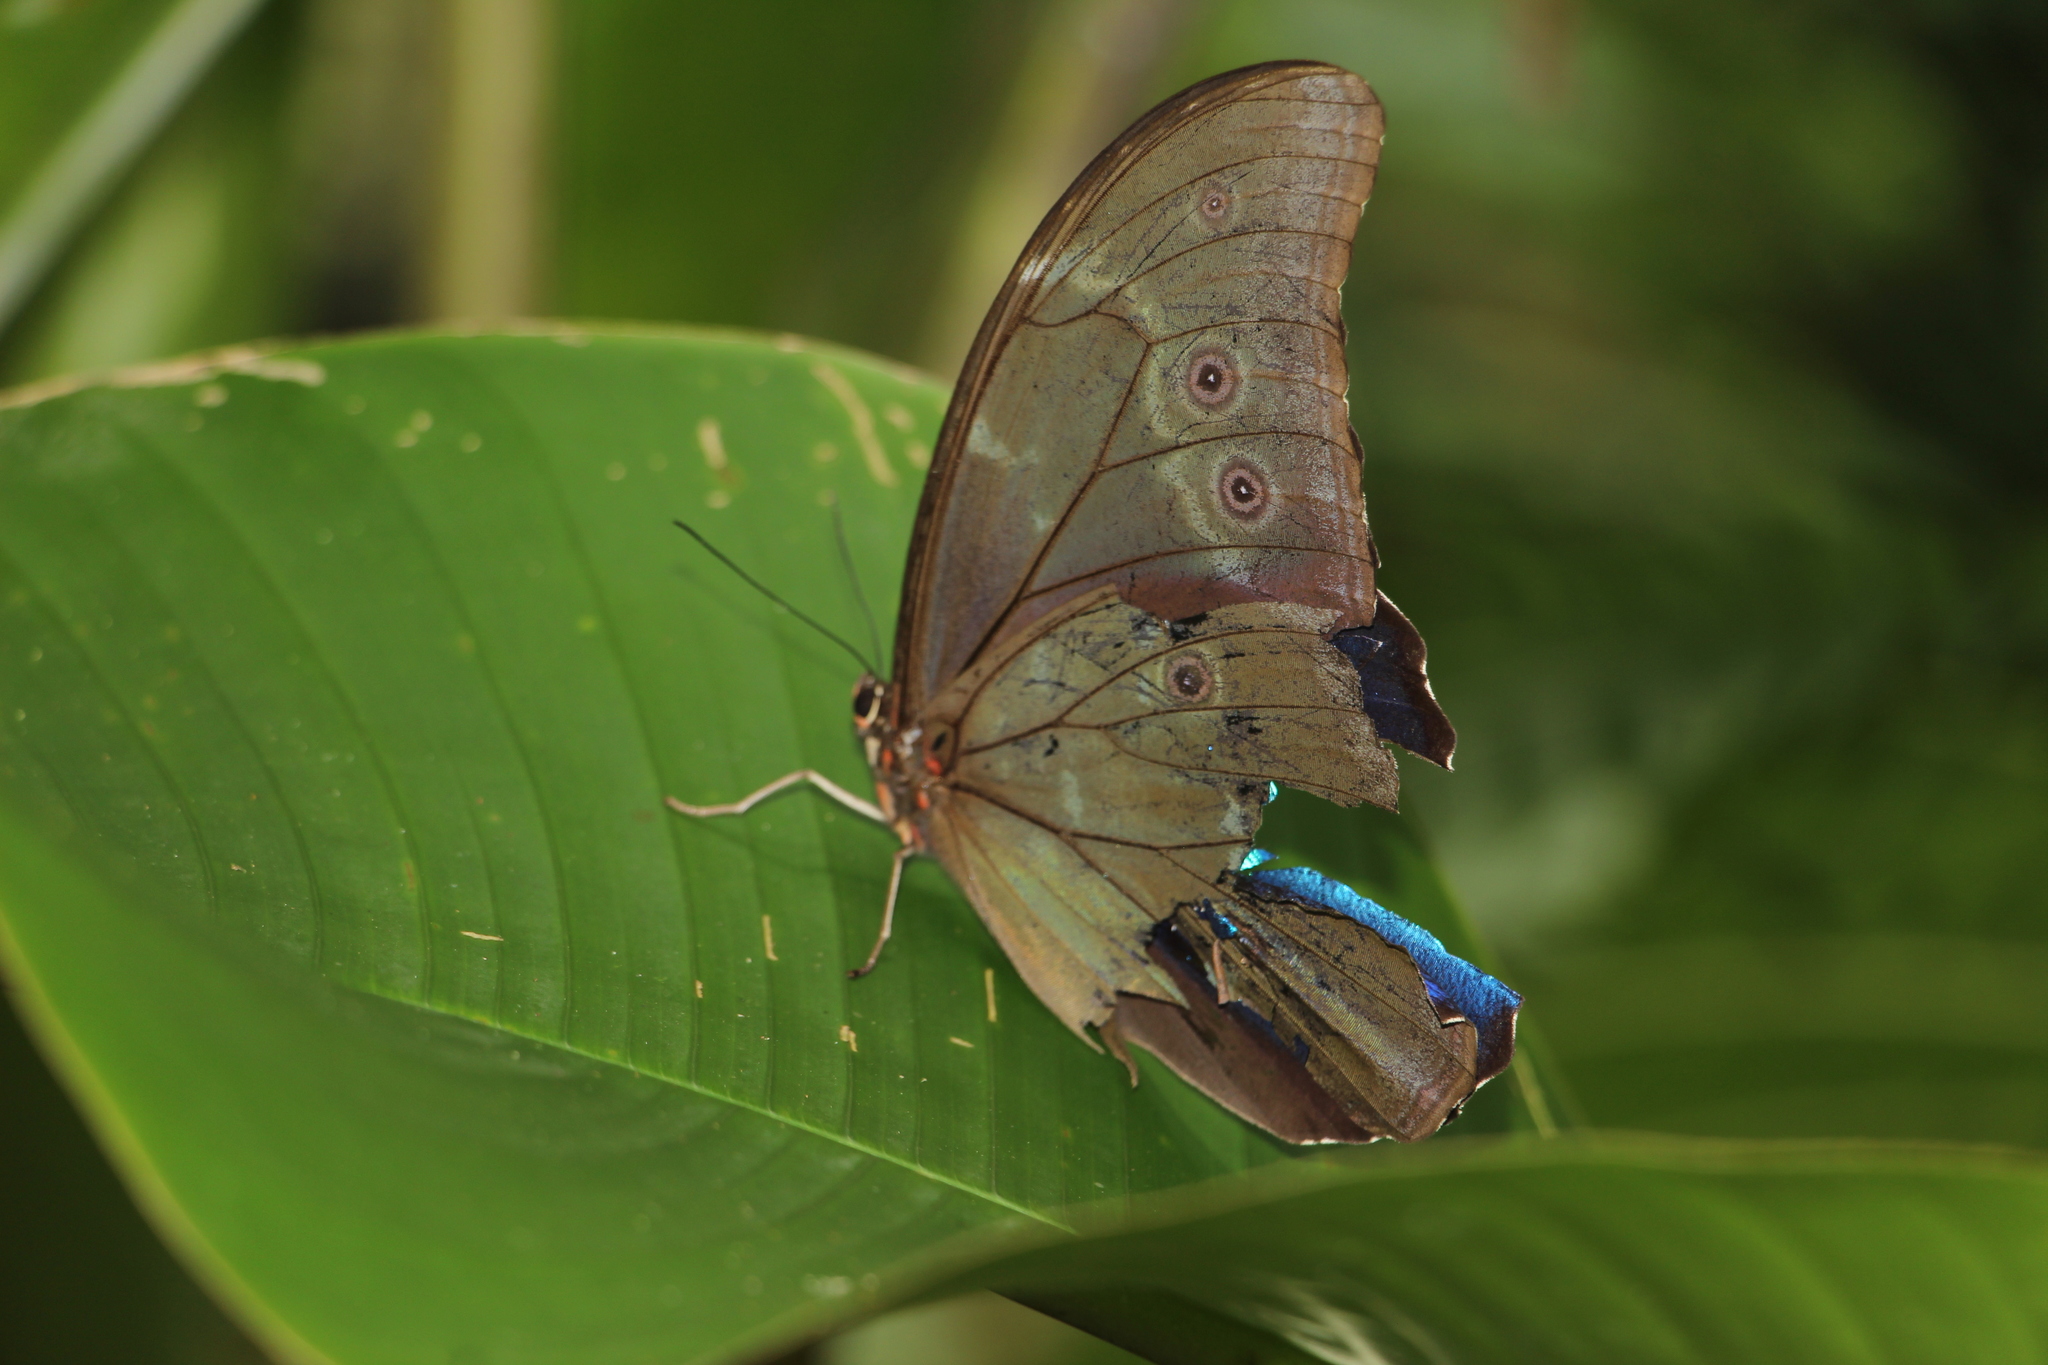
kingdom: Animalia
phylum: Arthropoda
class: Insecta
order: Lepidoptera
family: Nymphalidae
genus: Morpho
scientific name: Morpho menelaus
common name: Menelaus morpho
